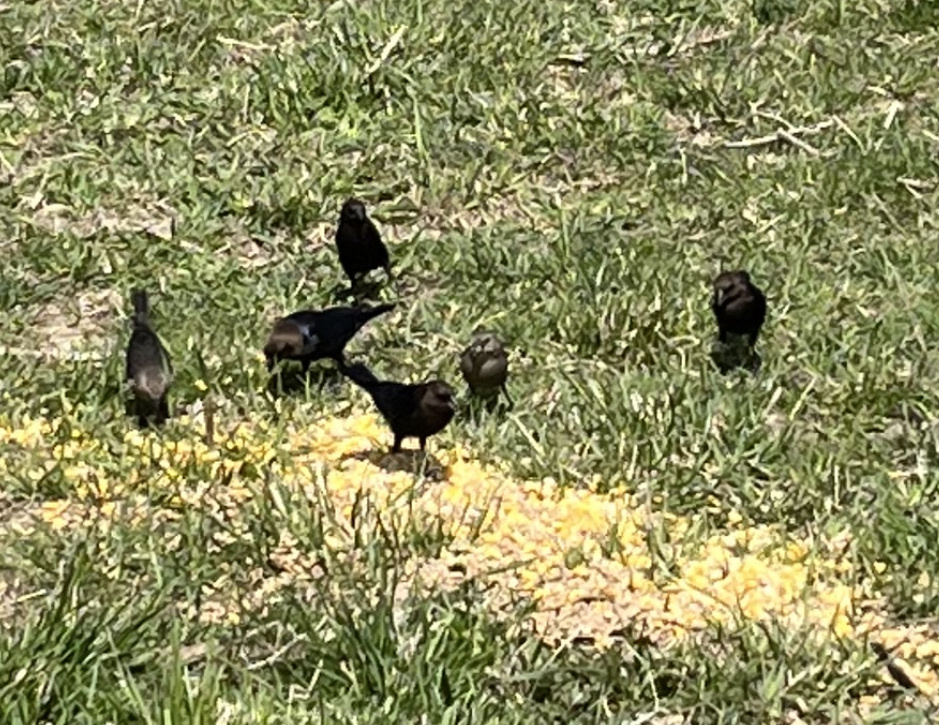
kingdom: Animalia
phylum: Chordata
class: Aves
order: Passeriformes
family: Icteridae
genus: Molothrus
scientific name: Molothrus ater
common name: Brown-headed cowbird
